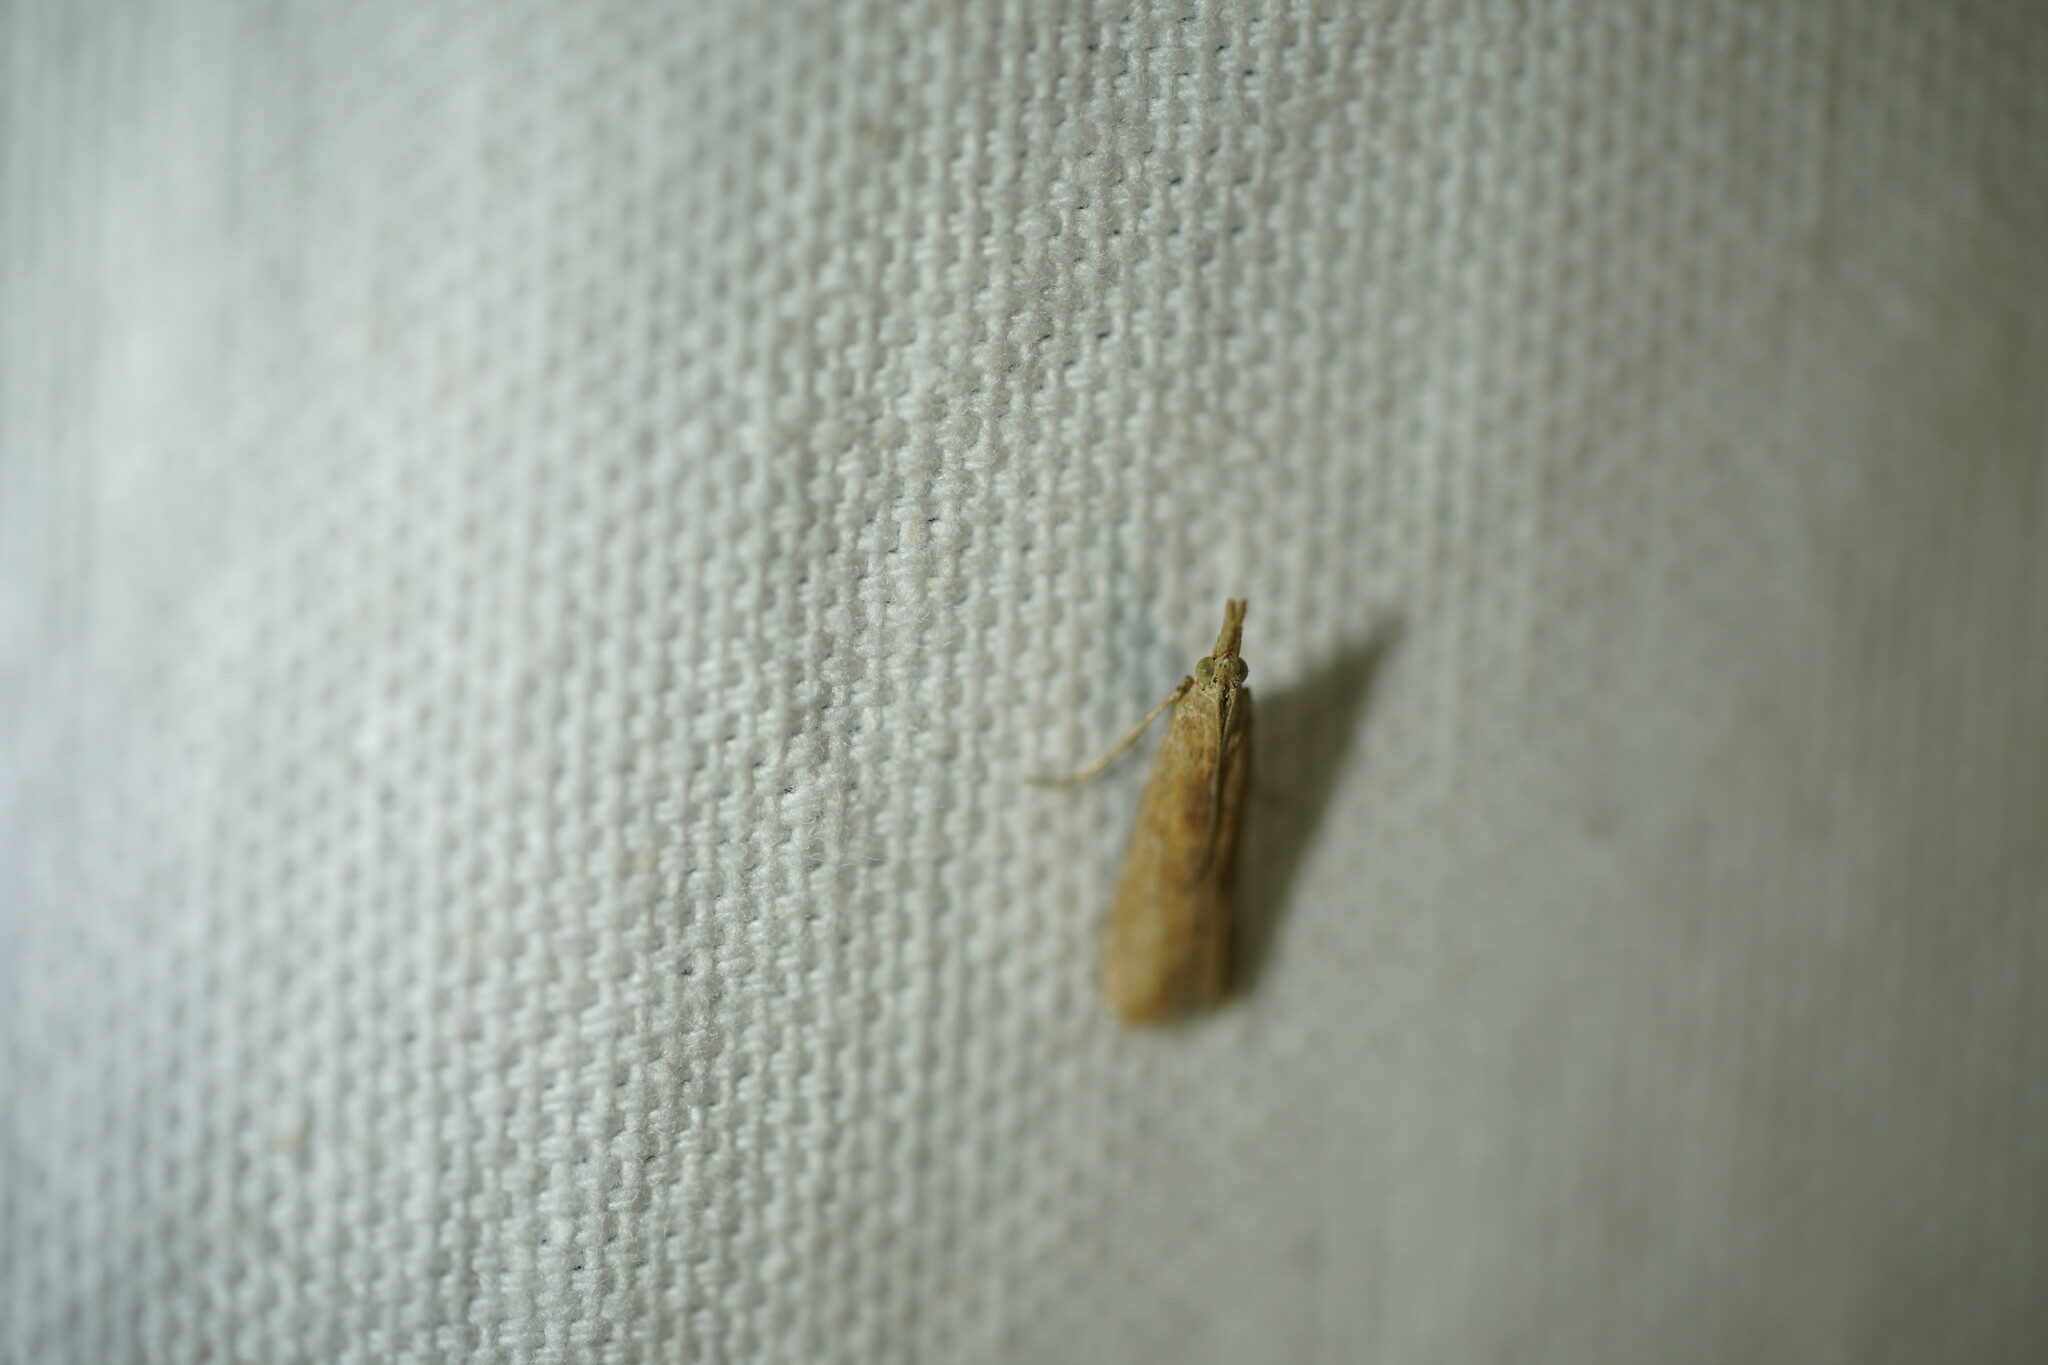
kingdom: Animalia
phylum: Arthropoda
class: Insecta
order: Lepidoptera
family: Pyralidae
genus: Macrorrhinia
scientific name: Macrorrhinia endonephele
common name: Alligator weed stemborer moth
